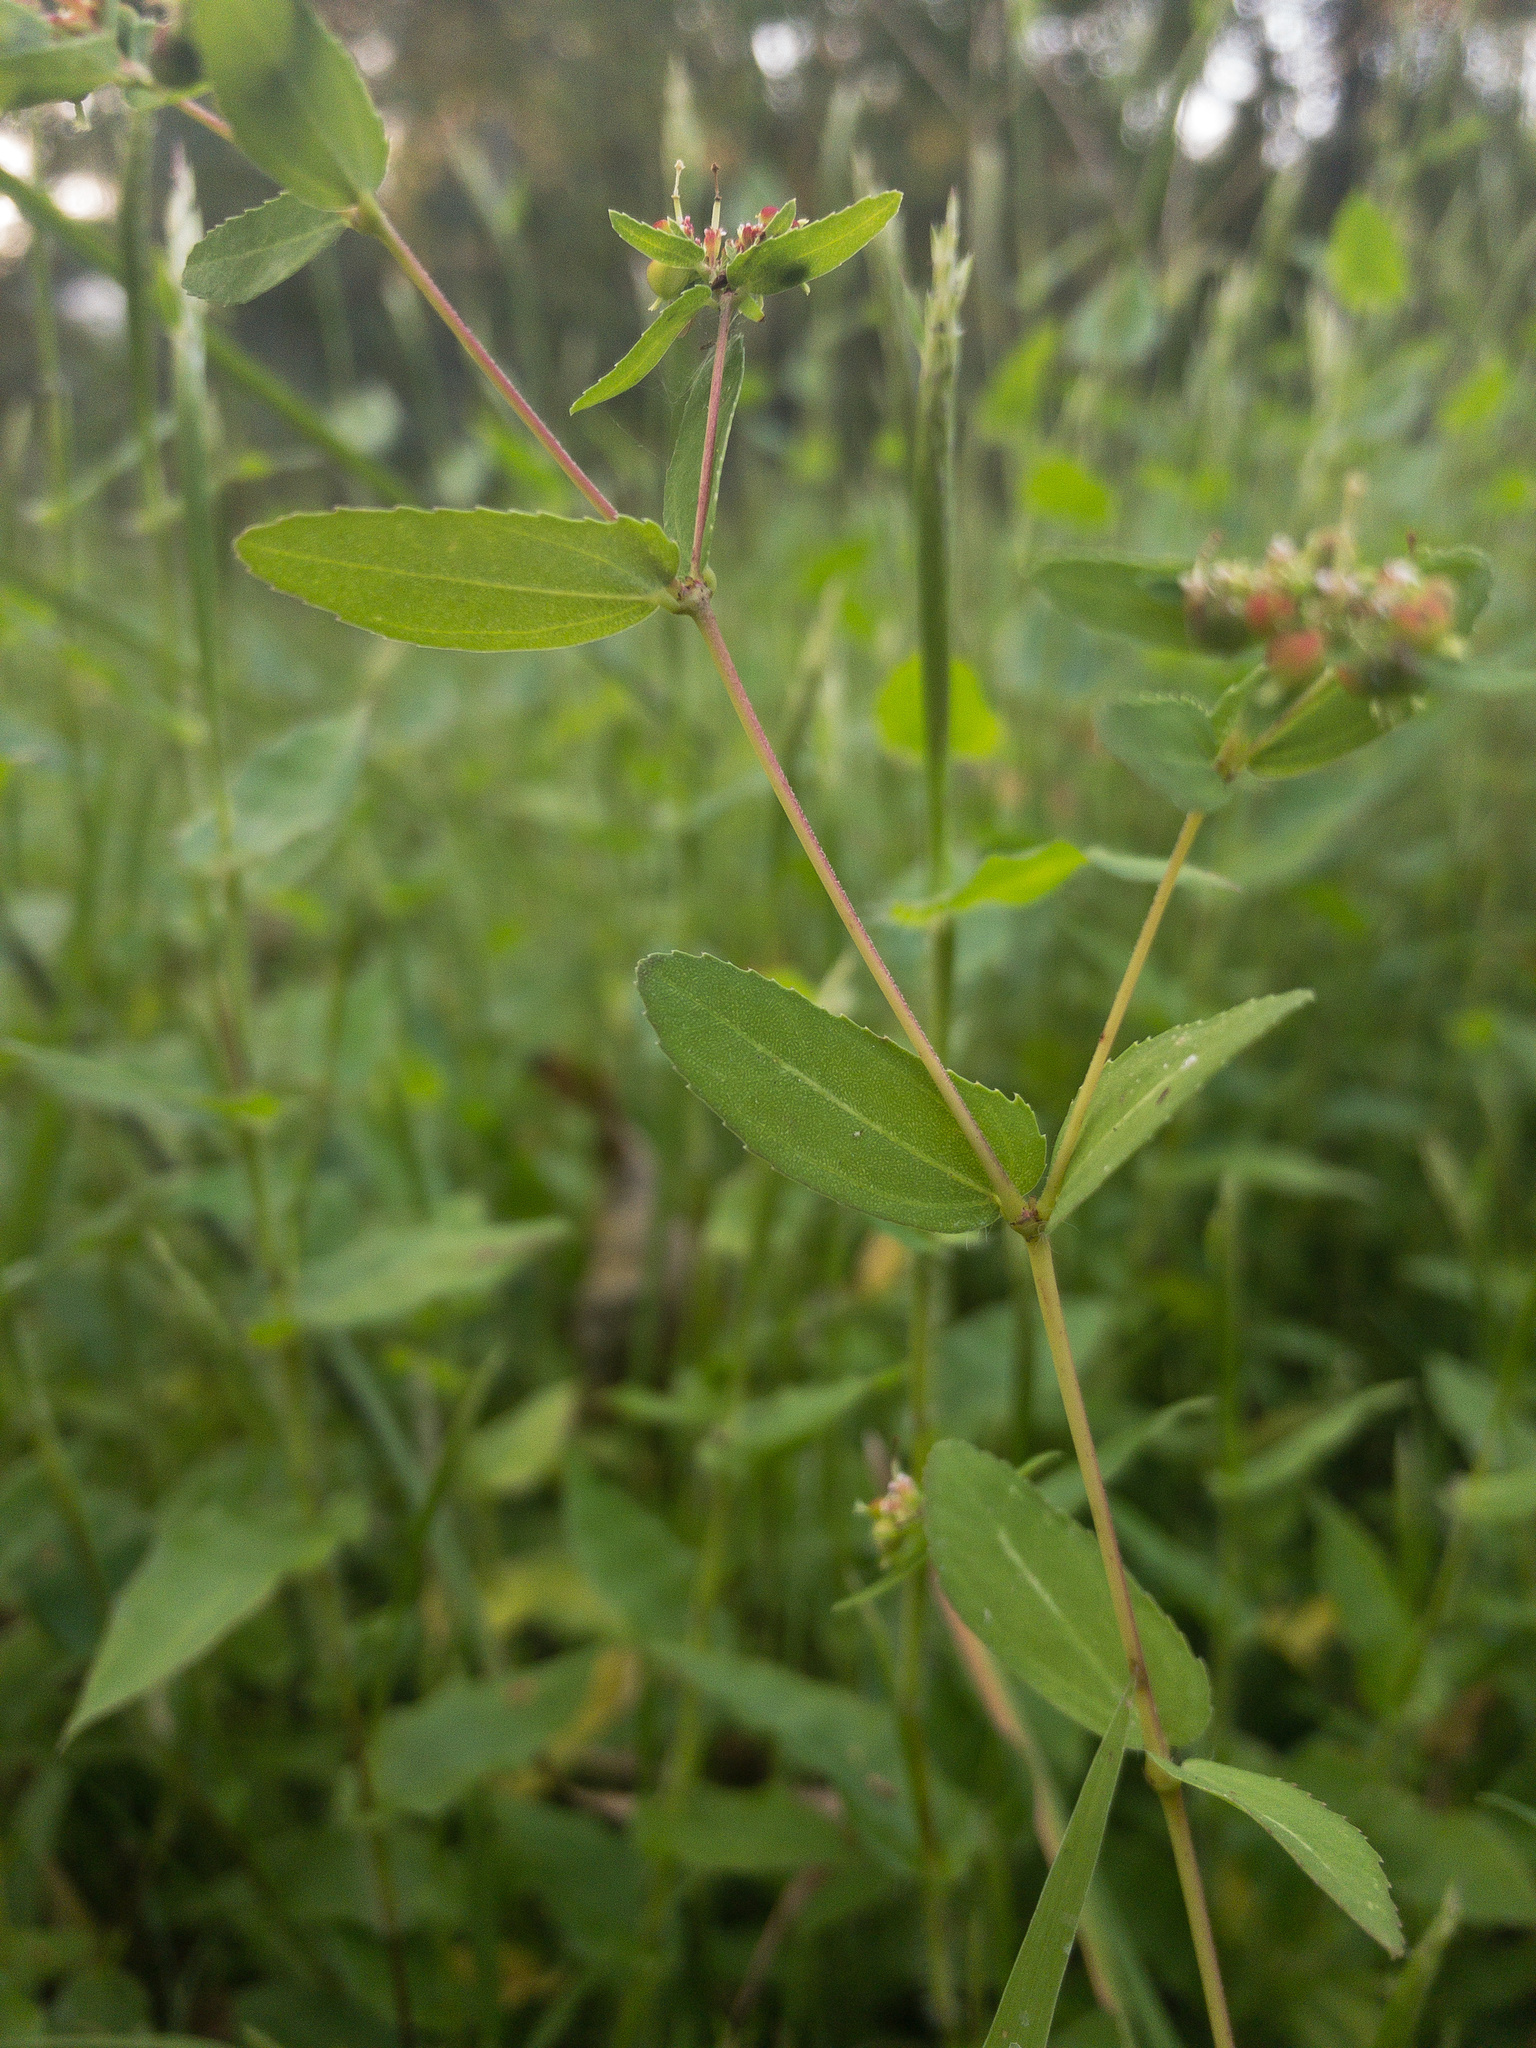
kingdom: Plantae
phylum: Tracheophyta
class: Magnoliopsida
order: Malpighiales
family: Euphorbiaceae
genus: Euphorbia
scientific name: Euphorbia nutans
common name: Eyebane
